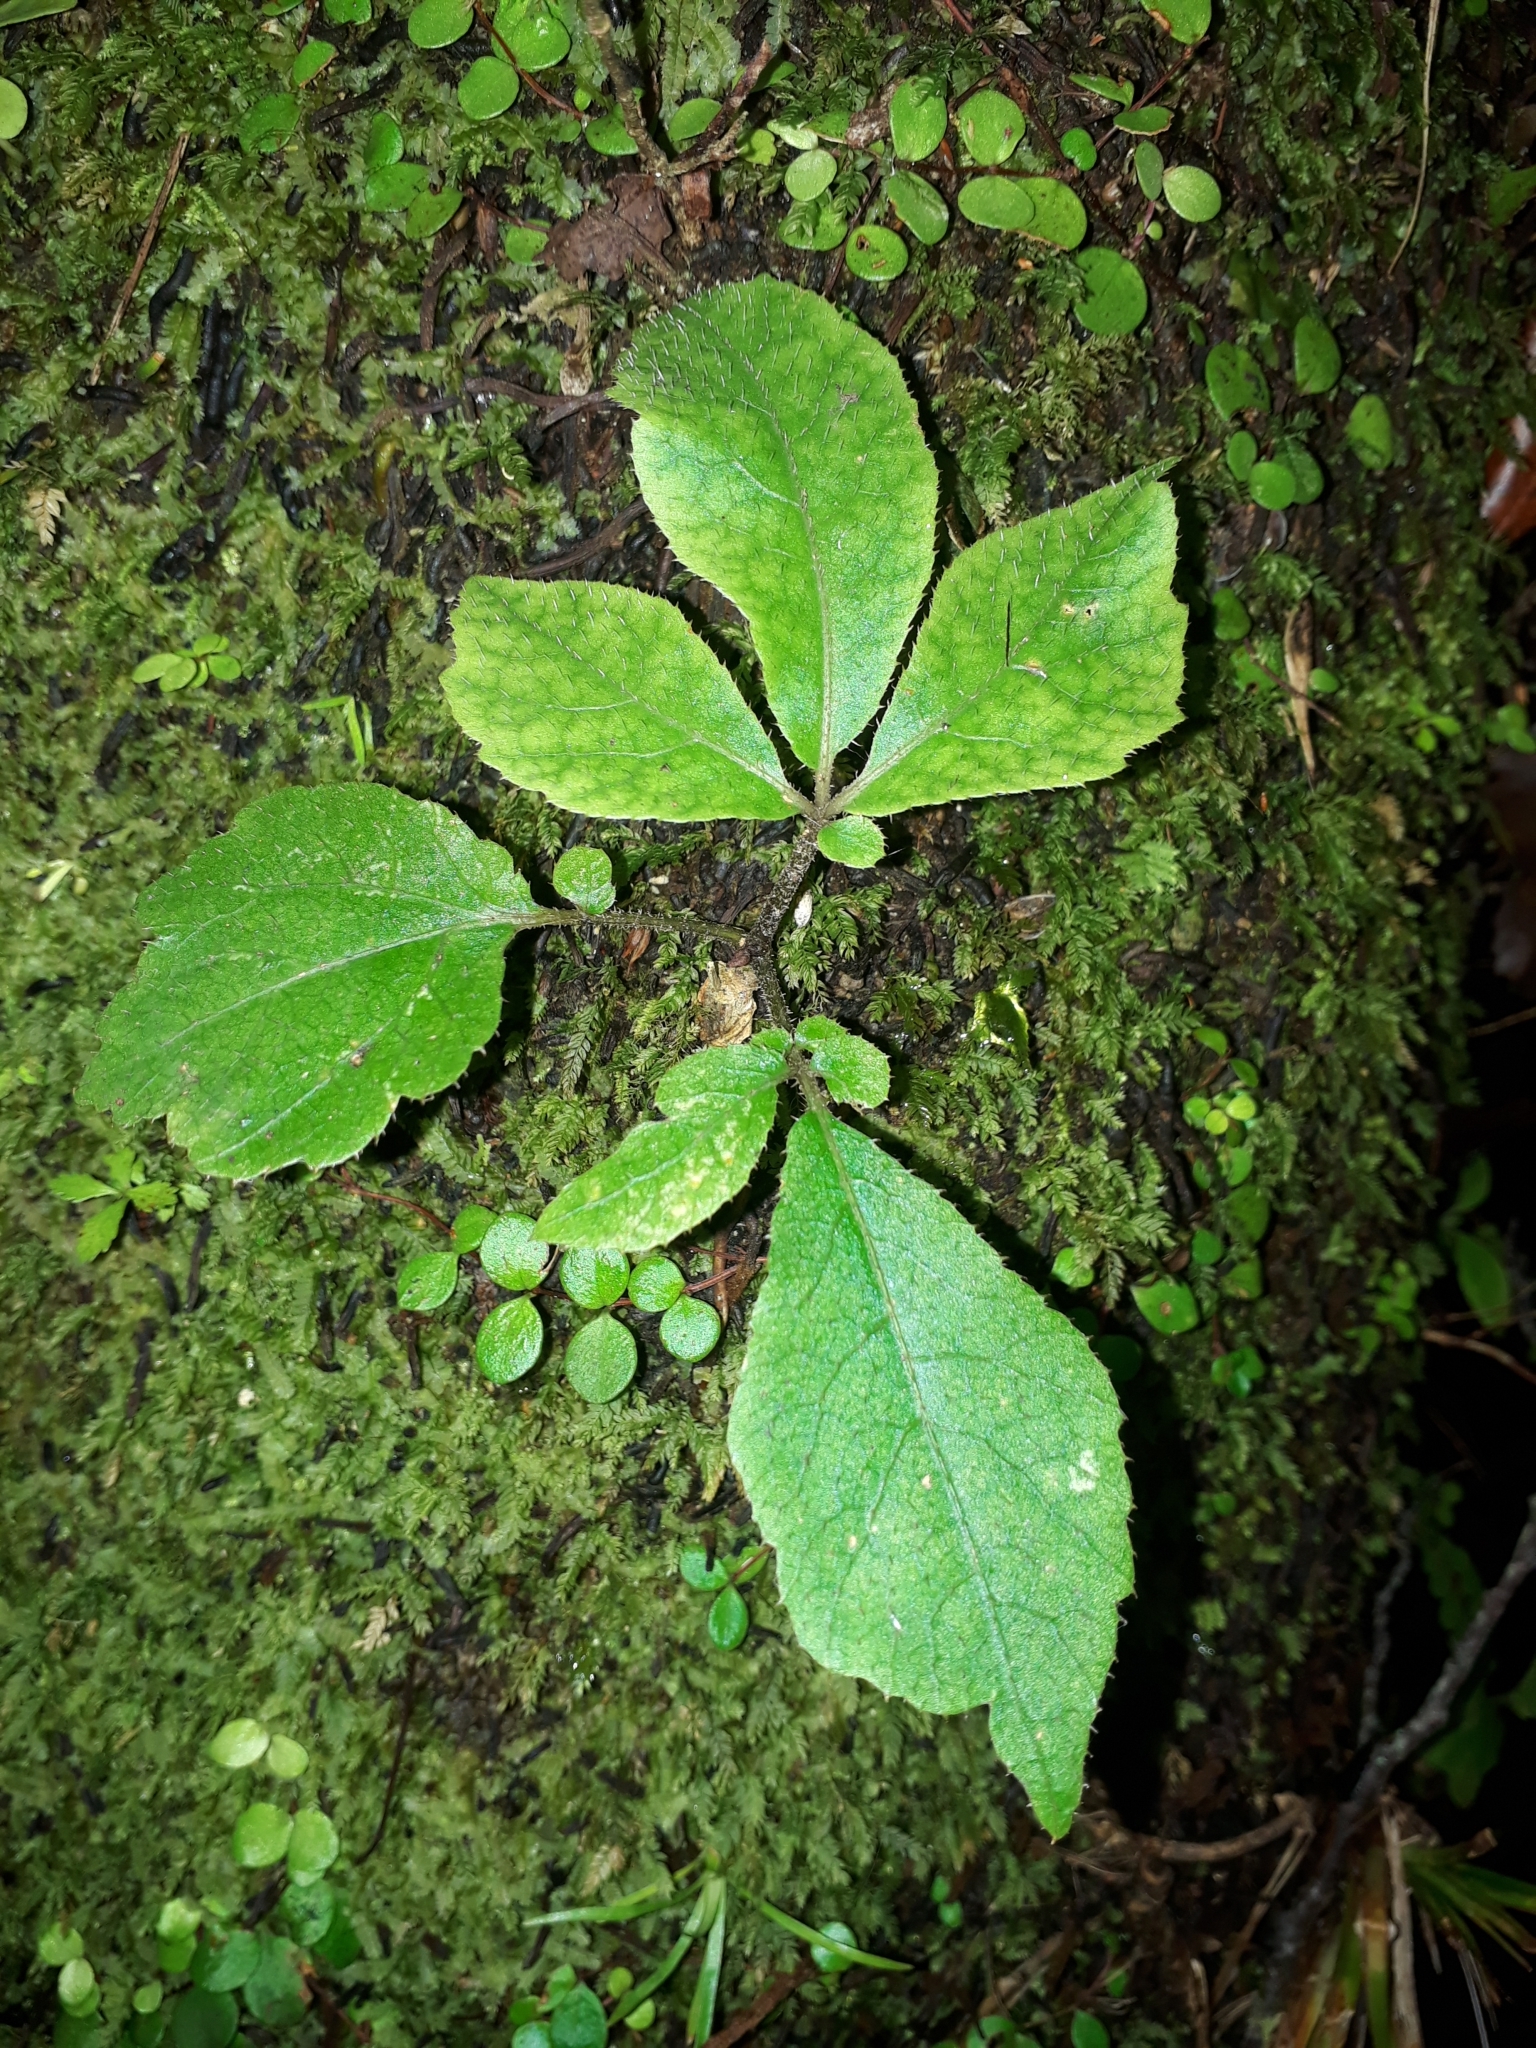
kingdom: Plantae
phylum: Tracheophyta
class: Magnoliopsida
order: Apiales
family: Araliaceae
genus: Schefflera
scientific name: Schefflera digitata
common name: Pate
